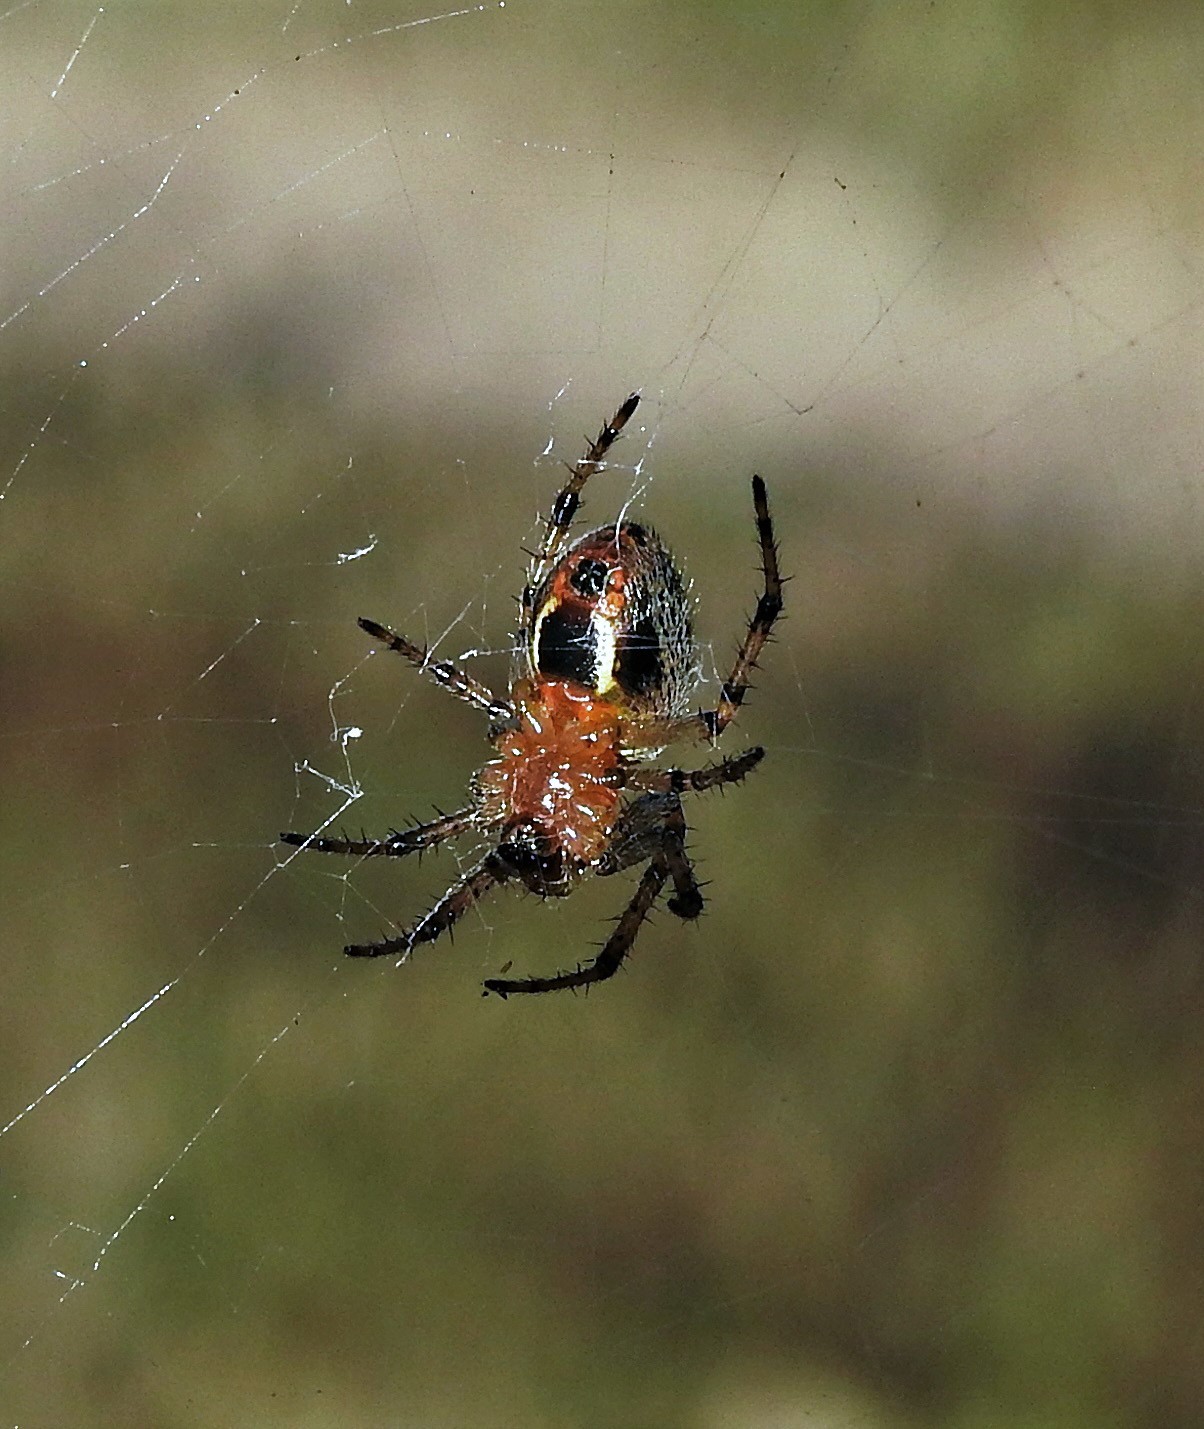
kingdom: Animalia
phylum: Arthropoda
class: Arachnida
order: Araneae
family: Araneidae
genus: Alpaida
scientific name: Alpaida veniliae
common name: Orb weavers
